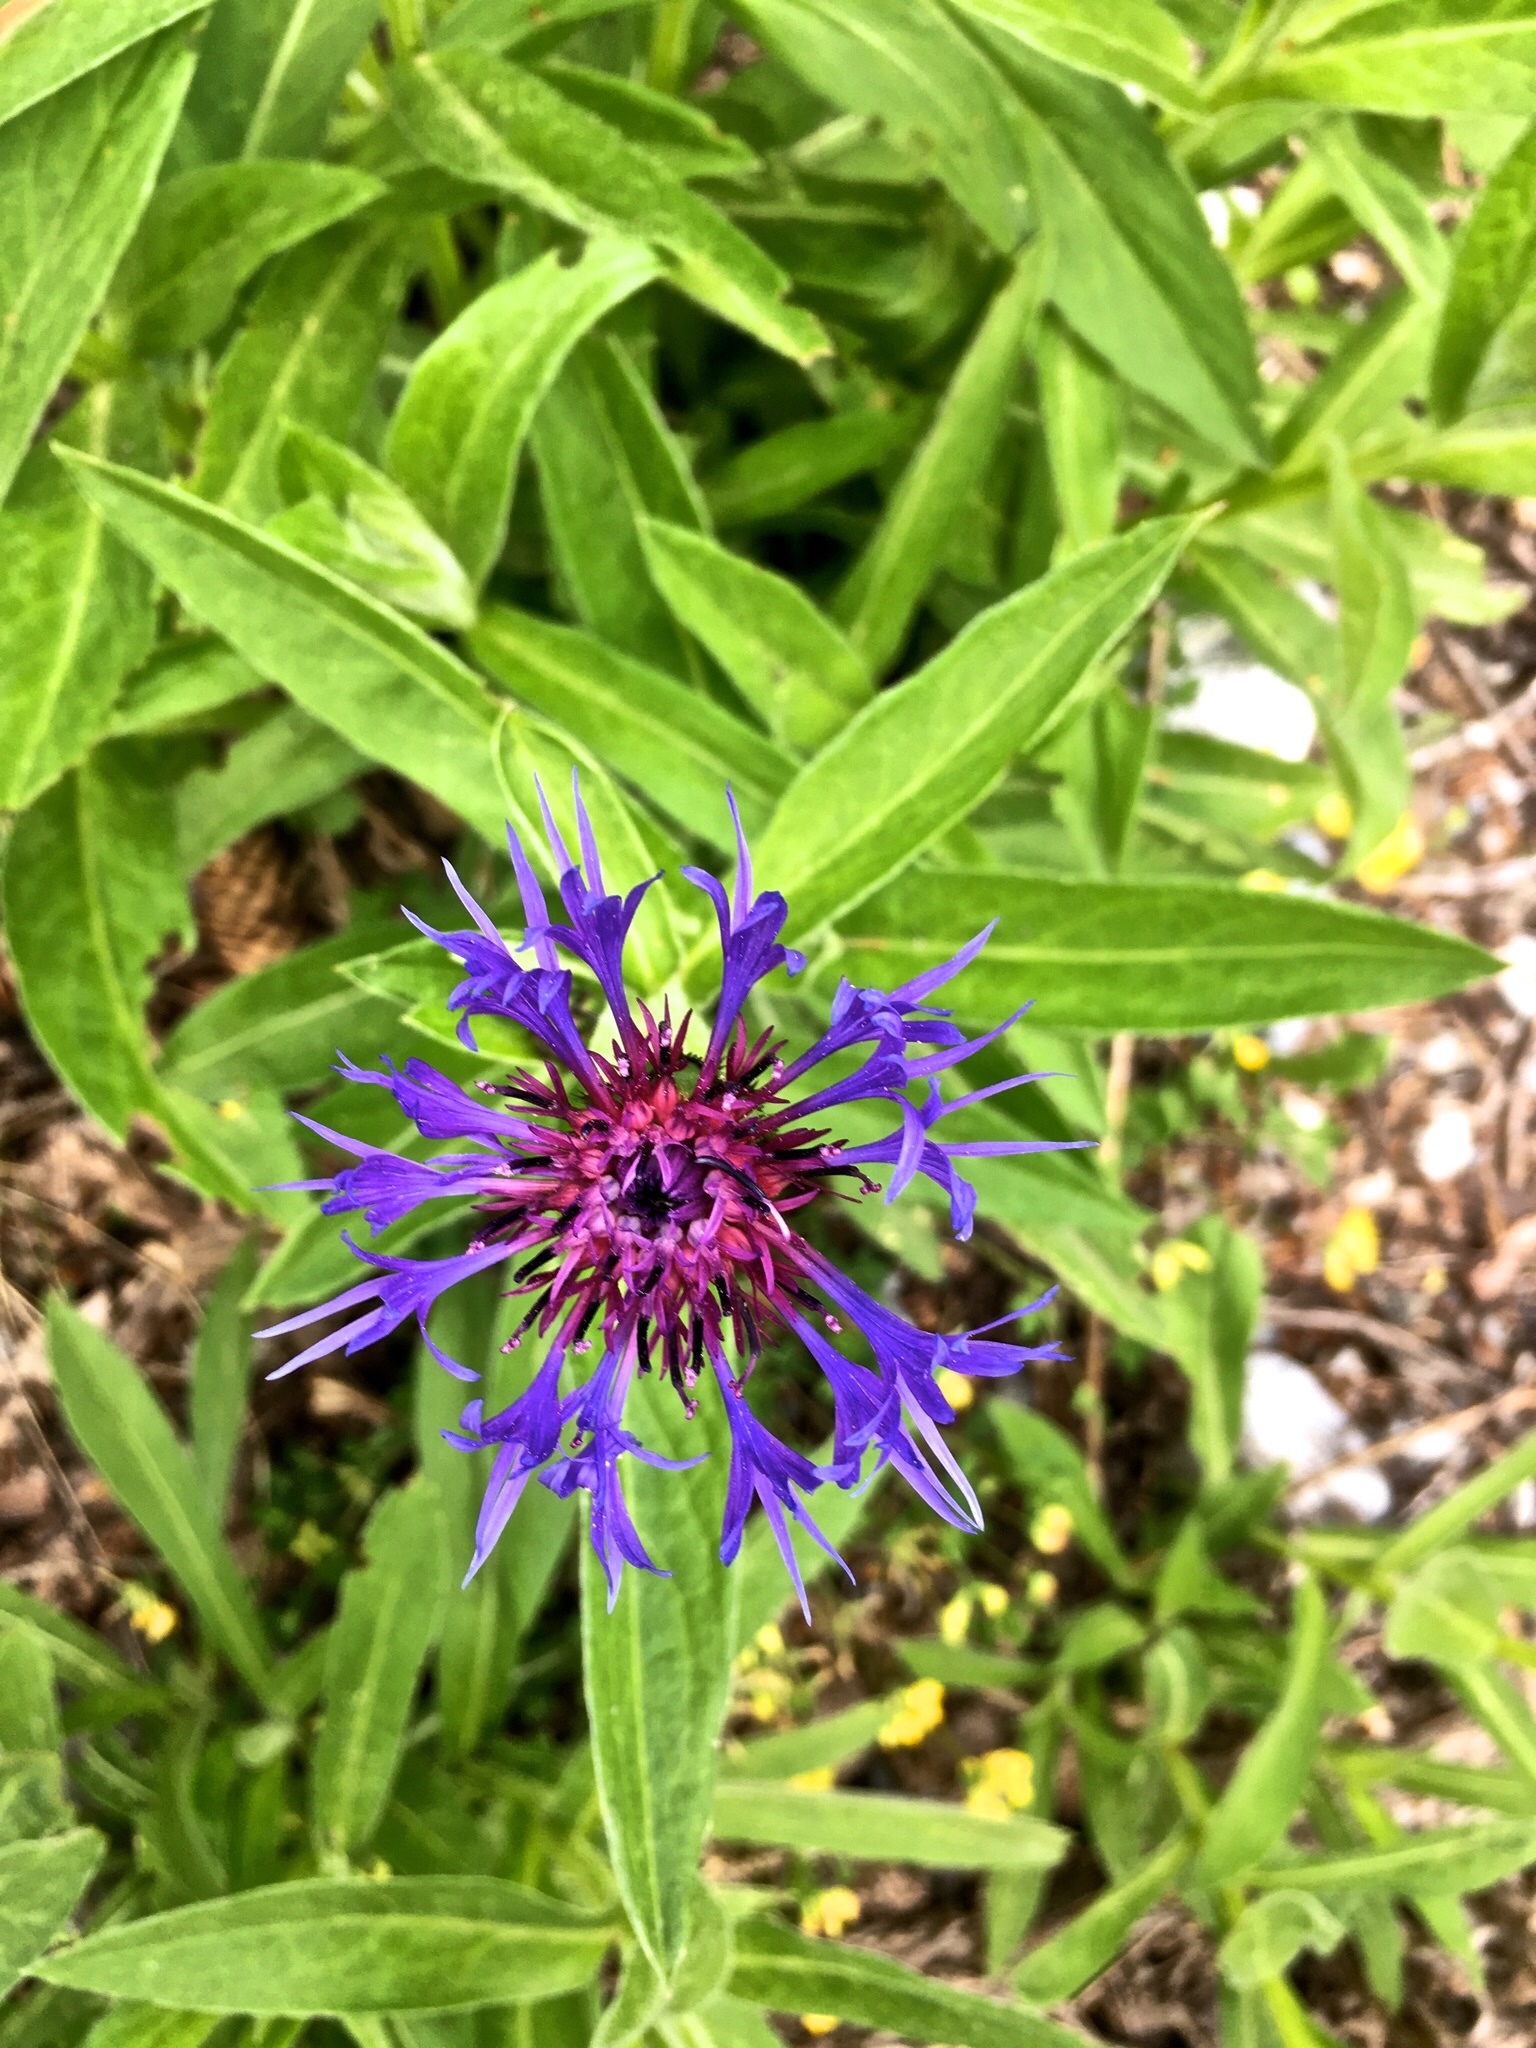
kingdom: Plantae
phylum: Tracheophyta
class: Magnoliopsida
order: Asterales
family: Asteraceae
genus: Centaurea
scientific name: Centaurea montana
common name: Perennial cornflower
